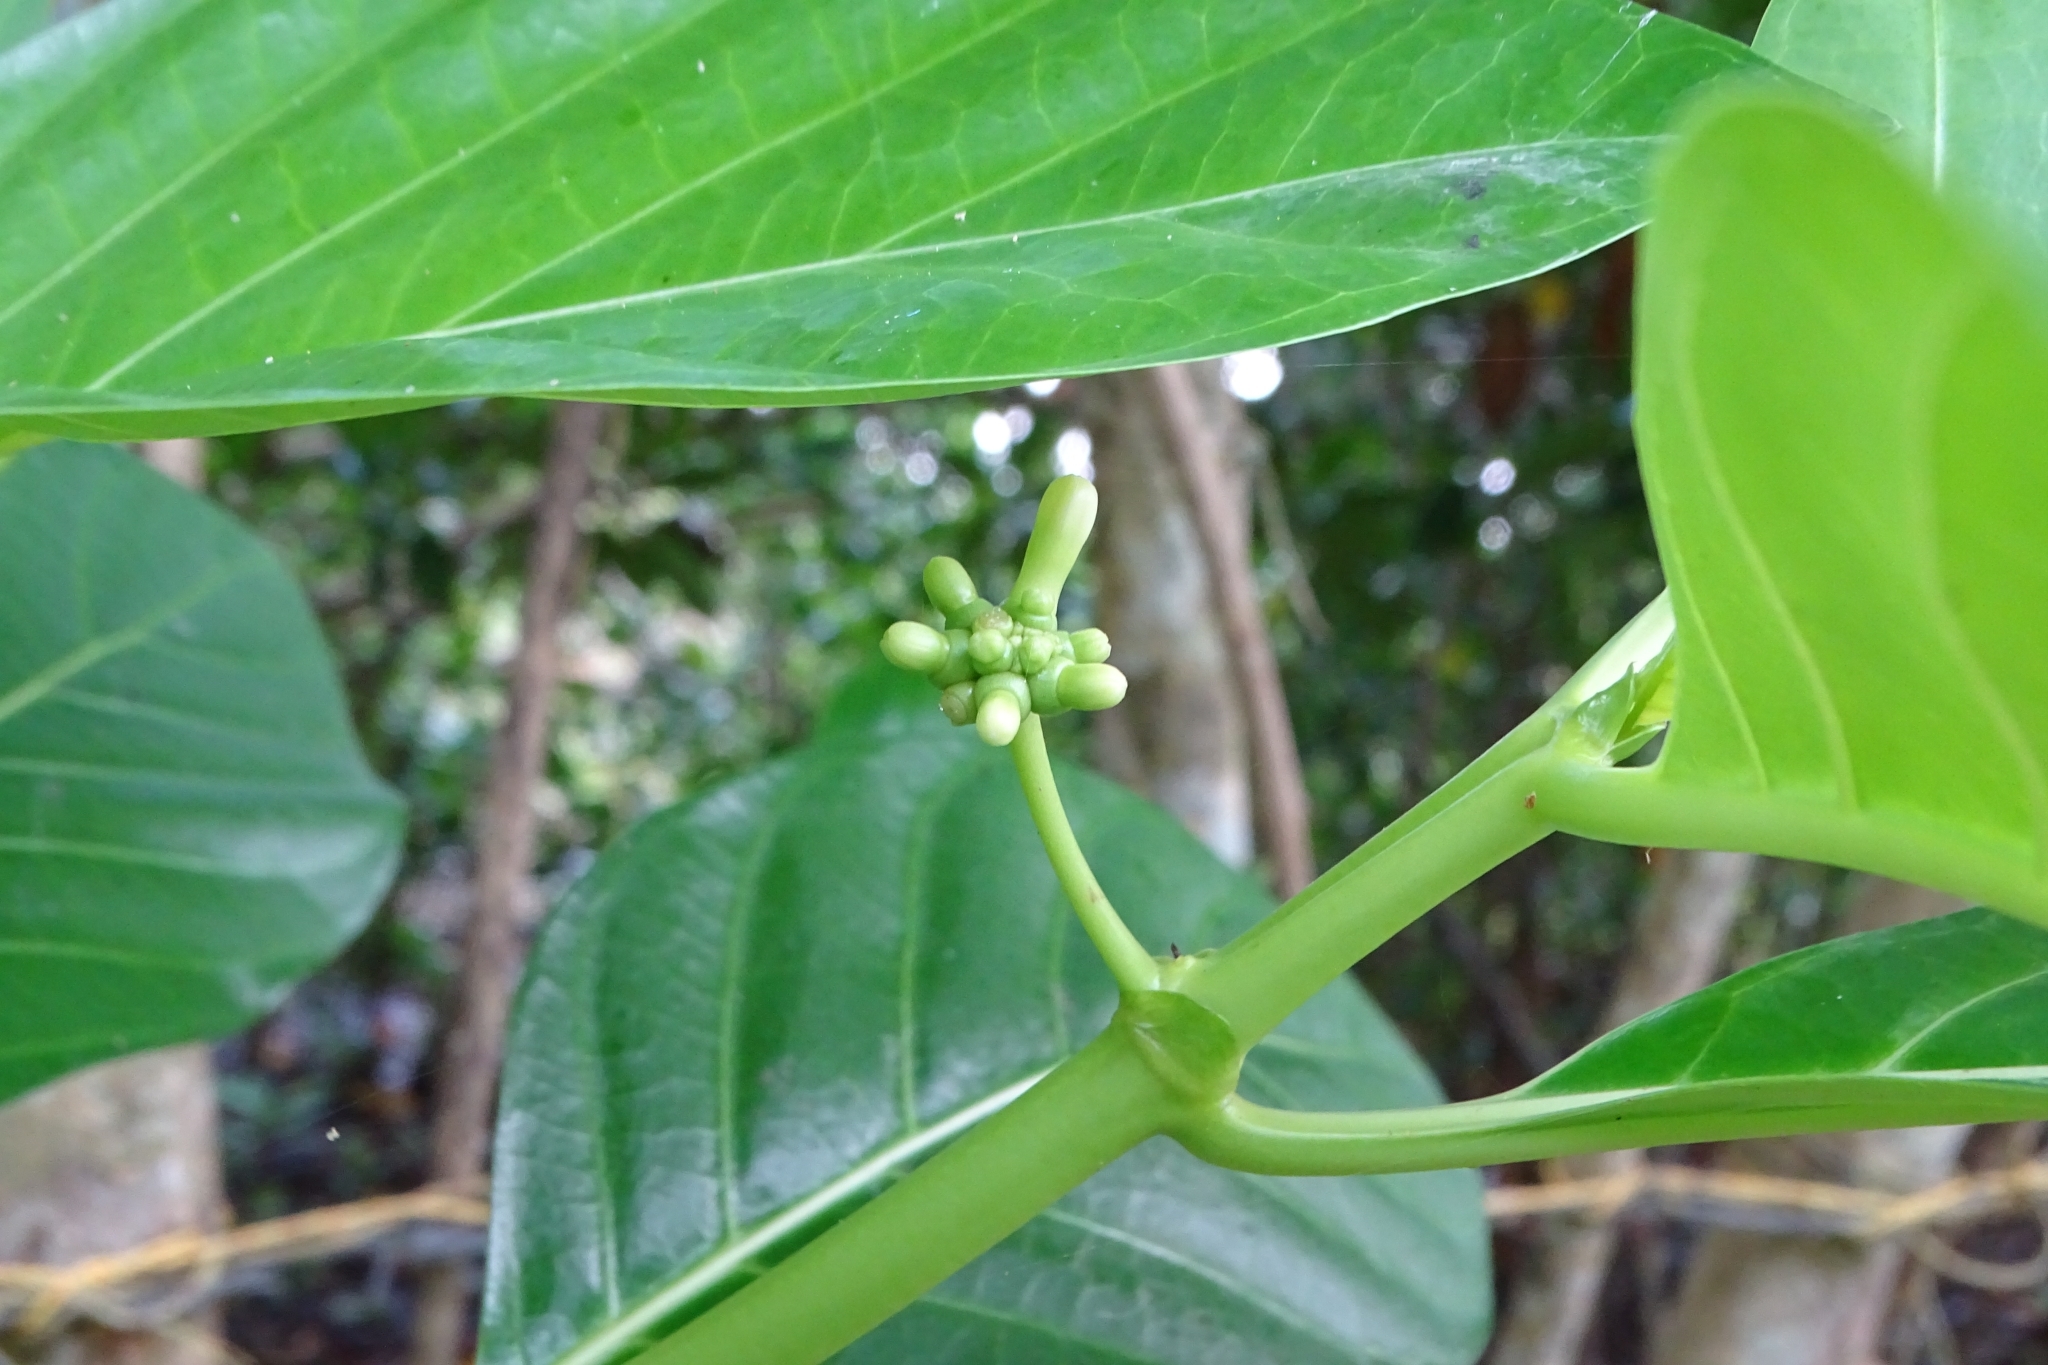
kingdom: Plantae
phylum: Tracheophyta
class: Magnoliopsida
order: Gentianales
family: Rubiaceae
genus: Morinda
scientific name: Morinda citrifolia
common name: Indian-mulberry
